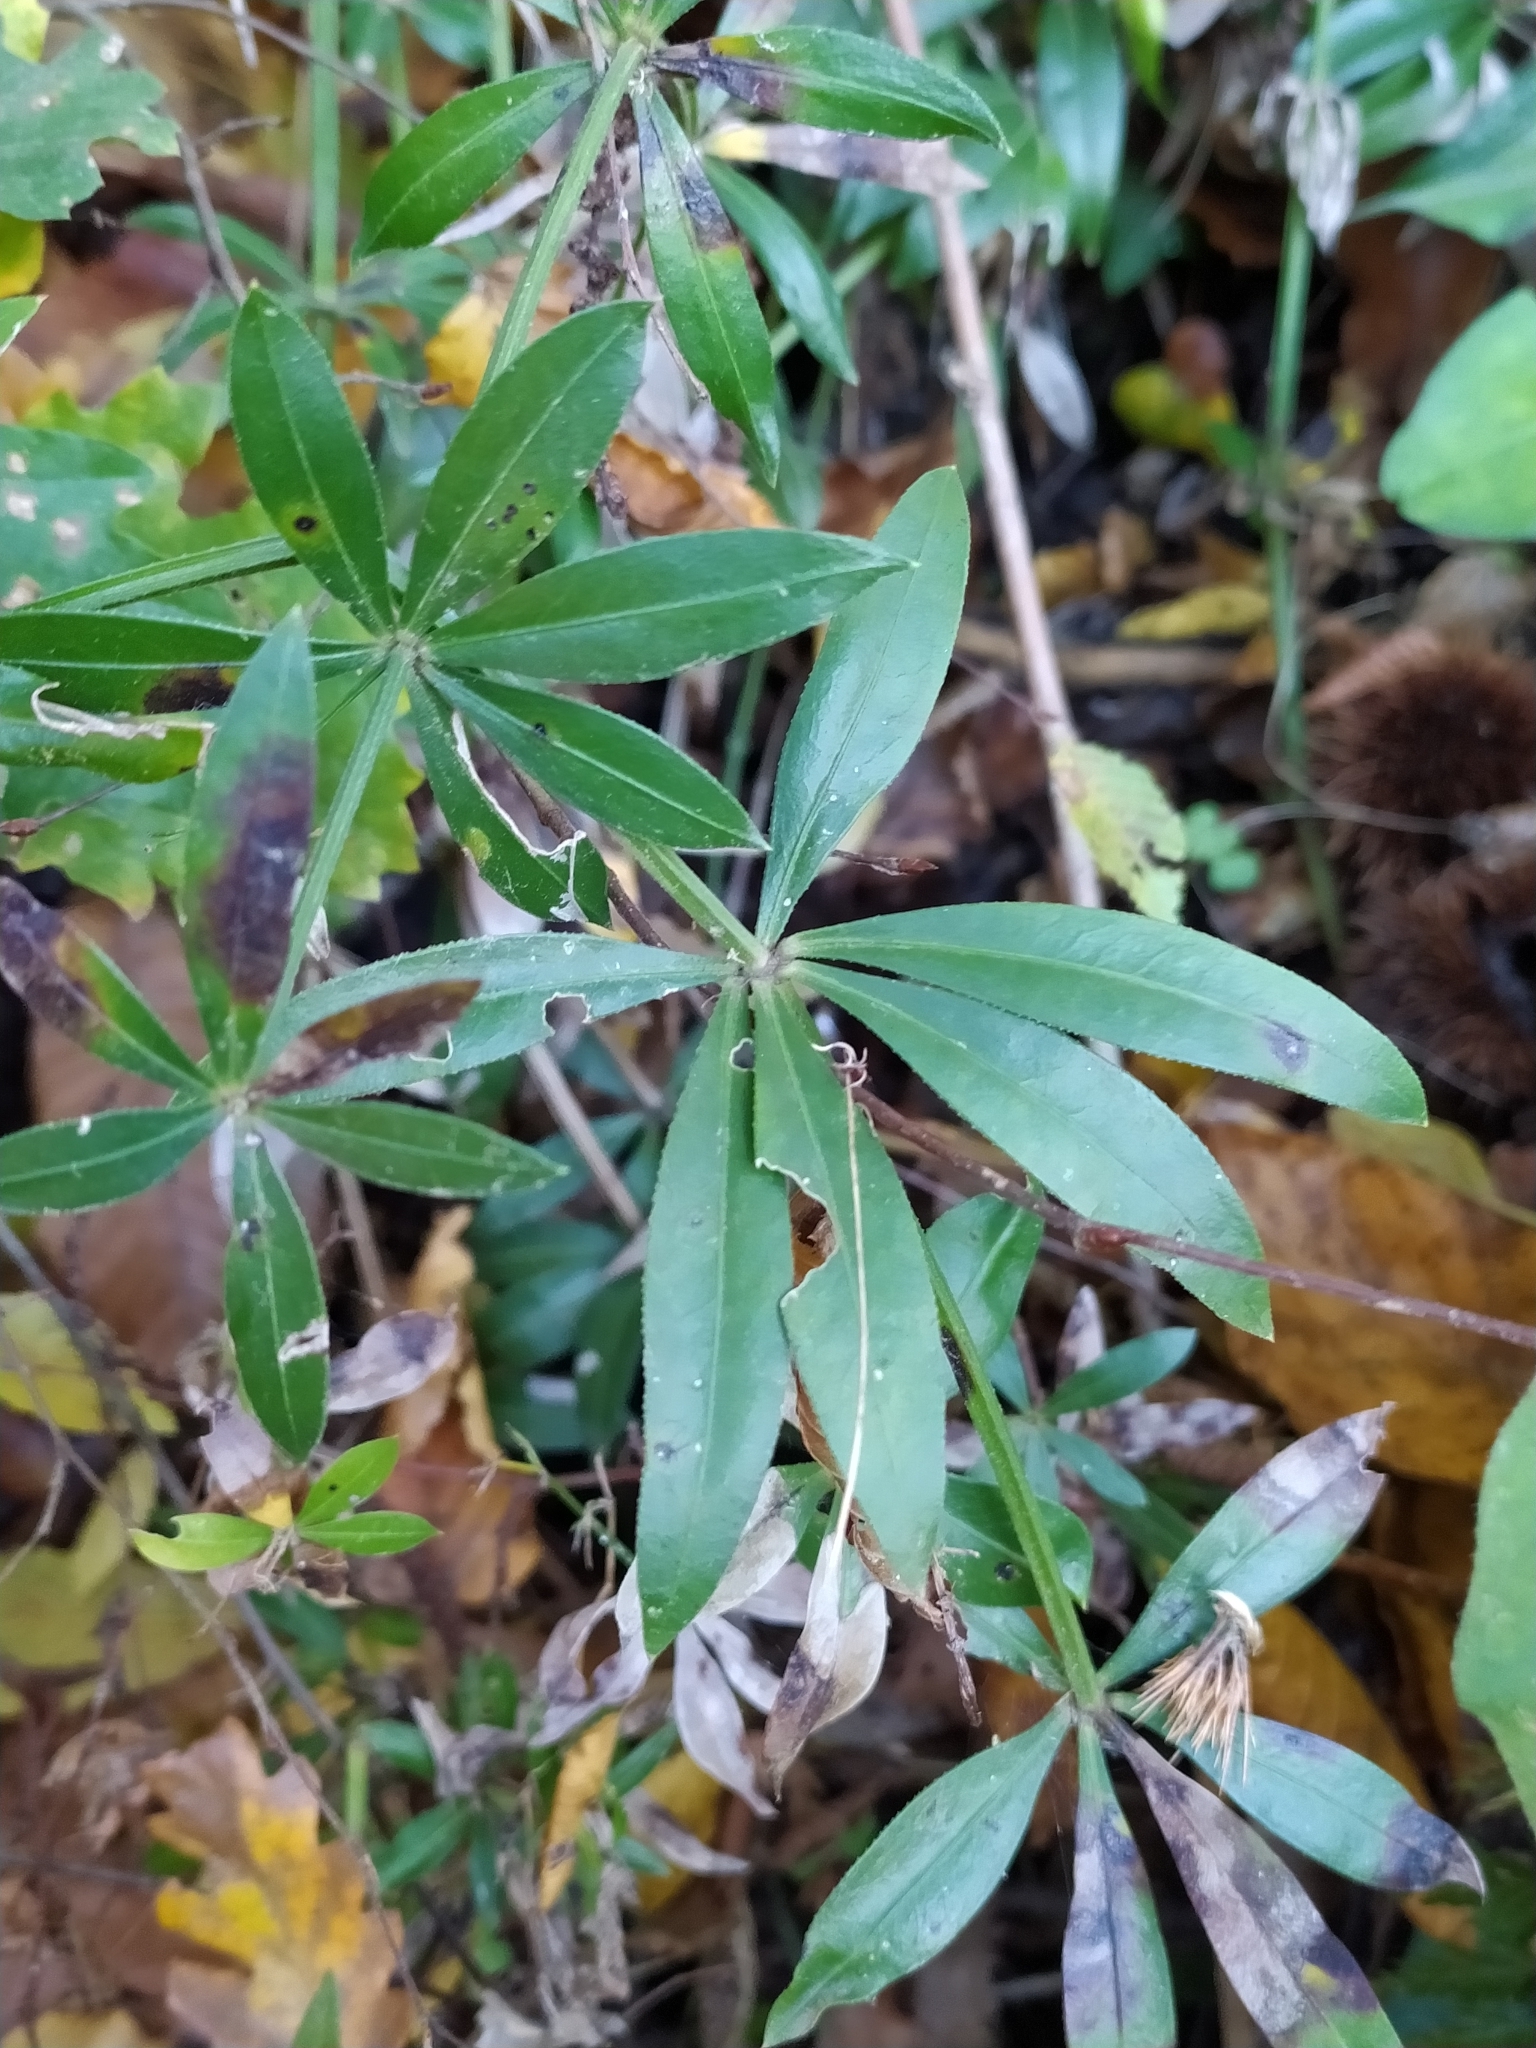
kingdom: Plantae
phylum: Tracheophyta
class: Magnoliopsida
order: Gentianales
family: Rubiaceae
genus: Rubia
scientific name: Rubia peregrina
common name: Wild madder
